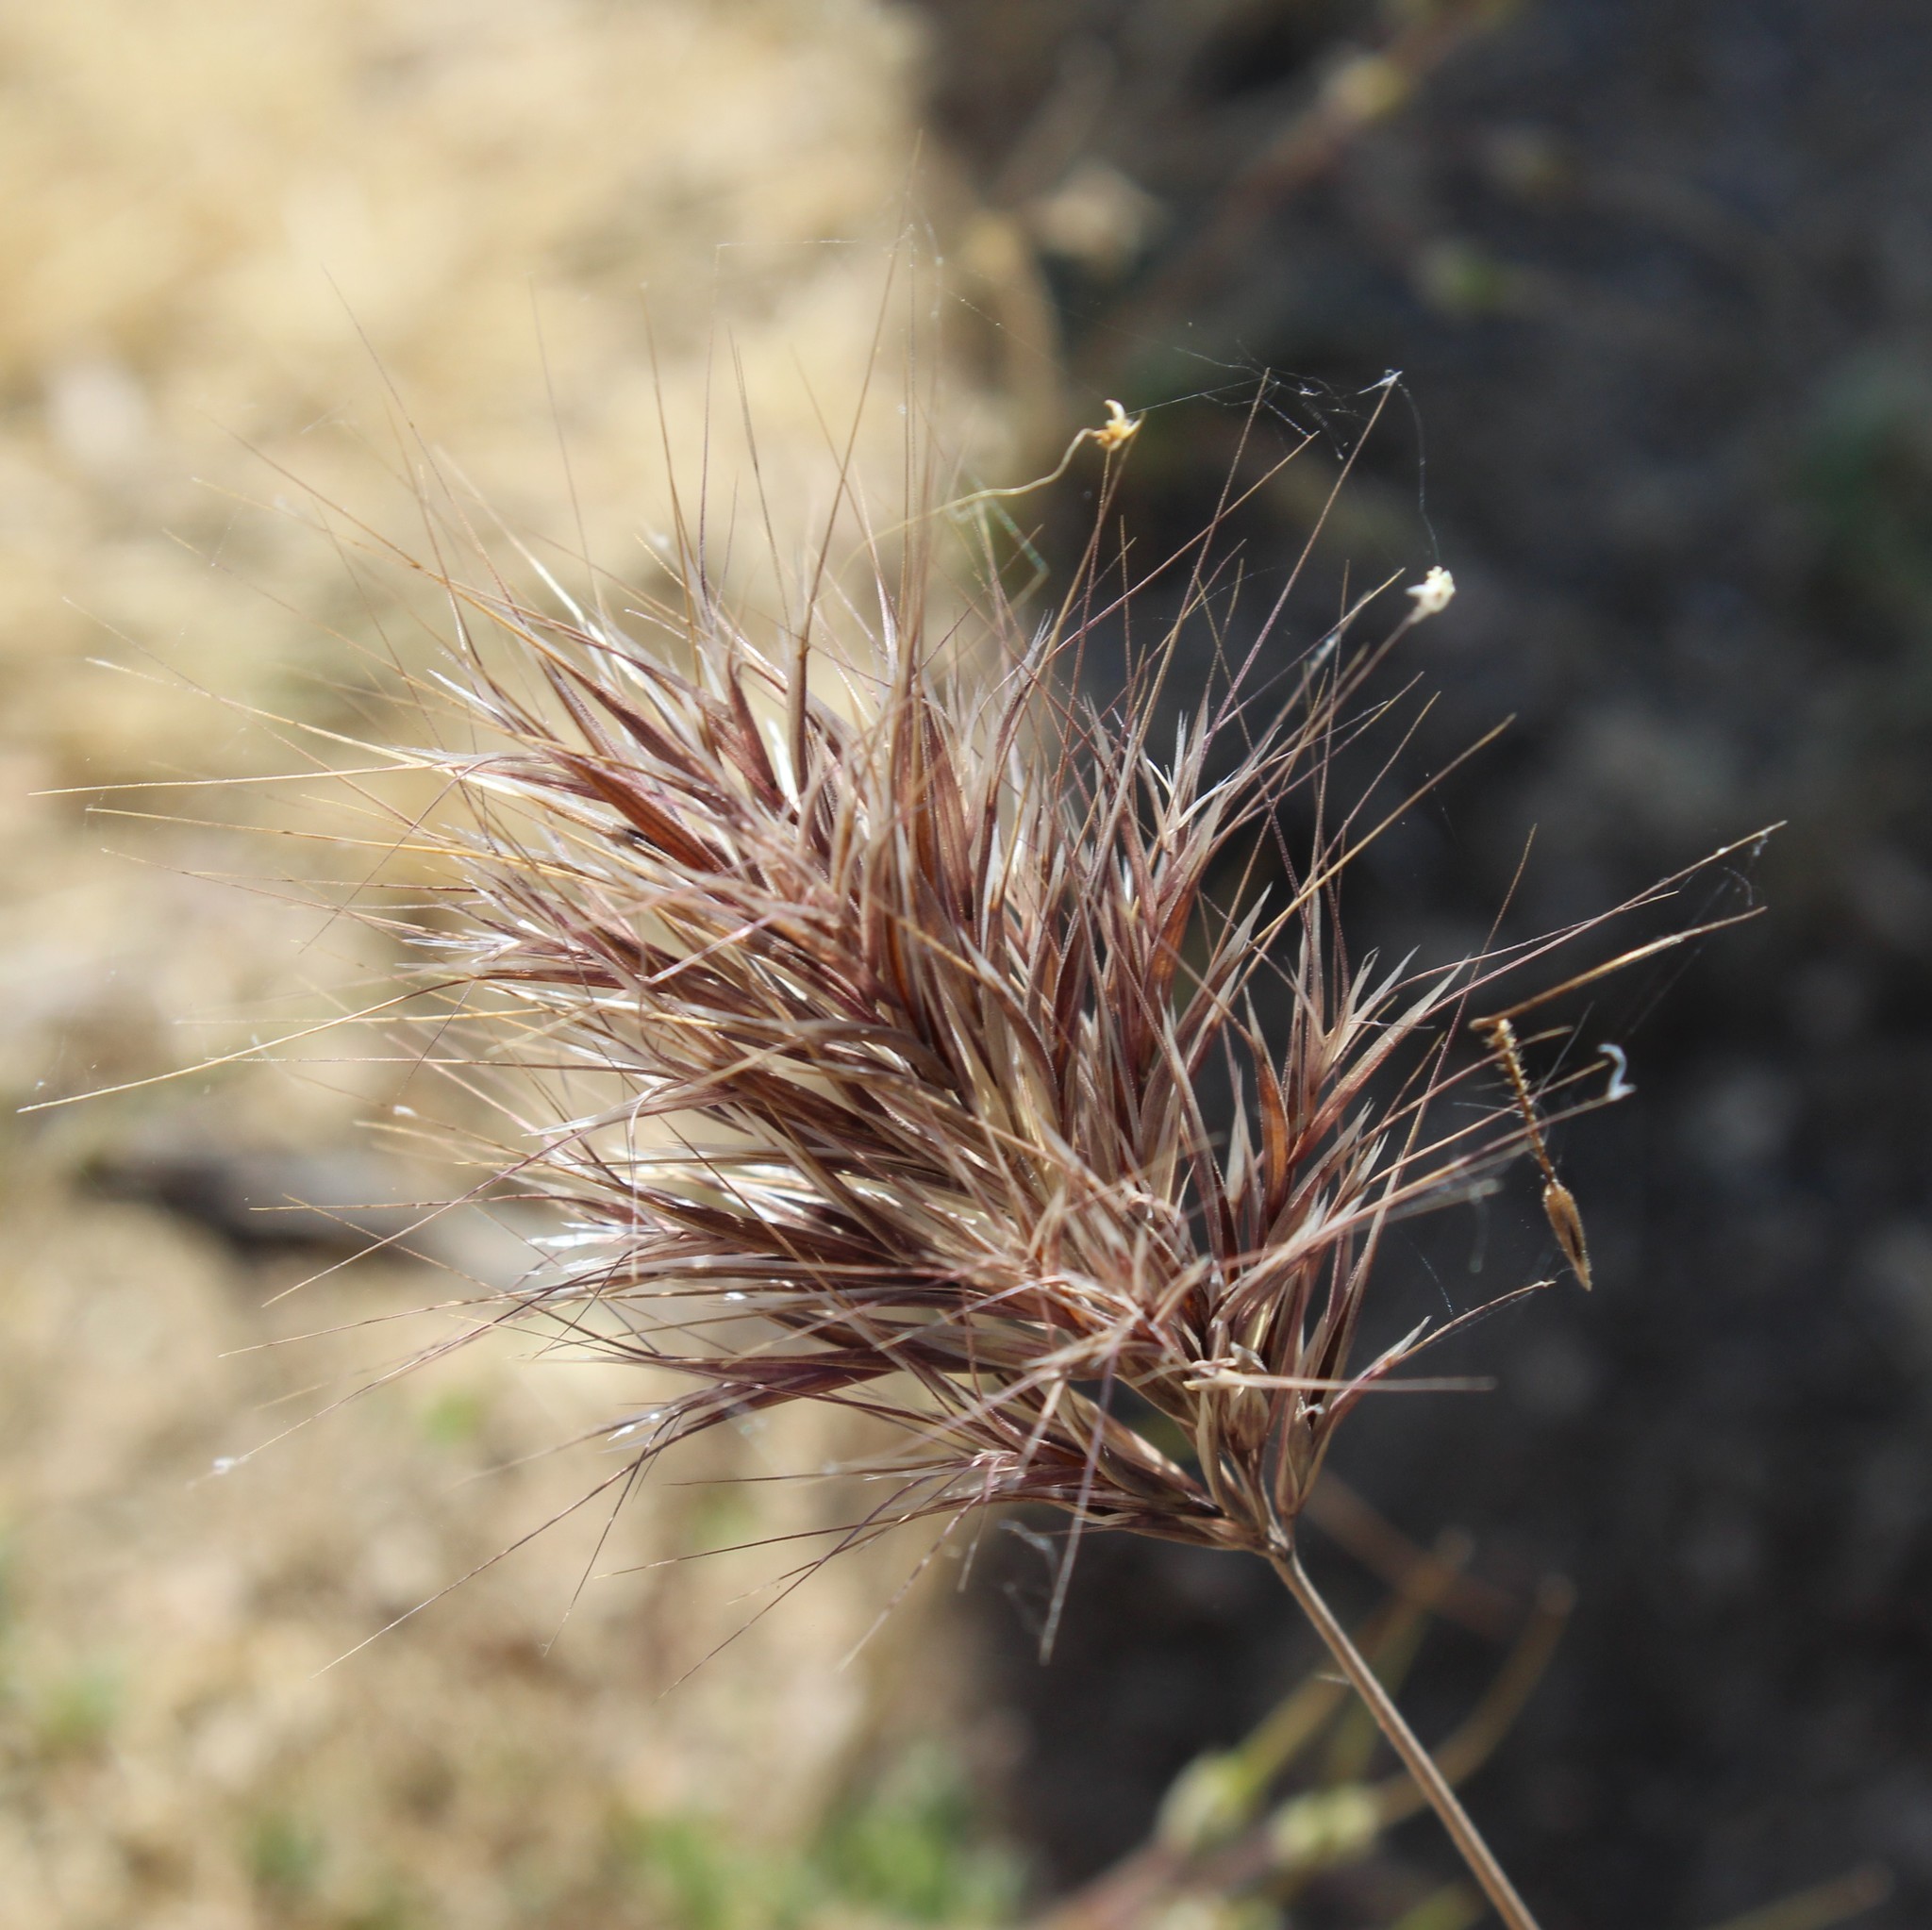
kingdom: Plantae
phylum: Tracheophyta
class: Liliopsida
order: Poales
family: Poaceae
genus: Bromus
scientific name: Bromus rubens
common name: Red brome
